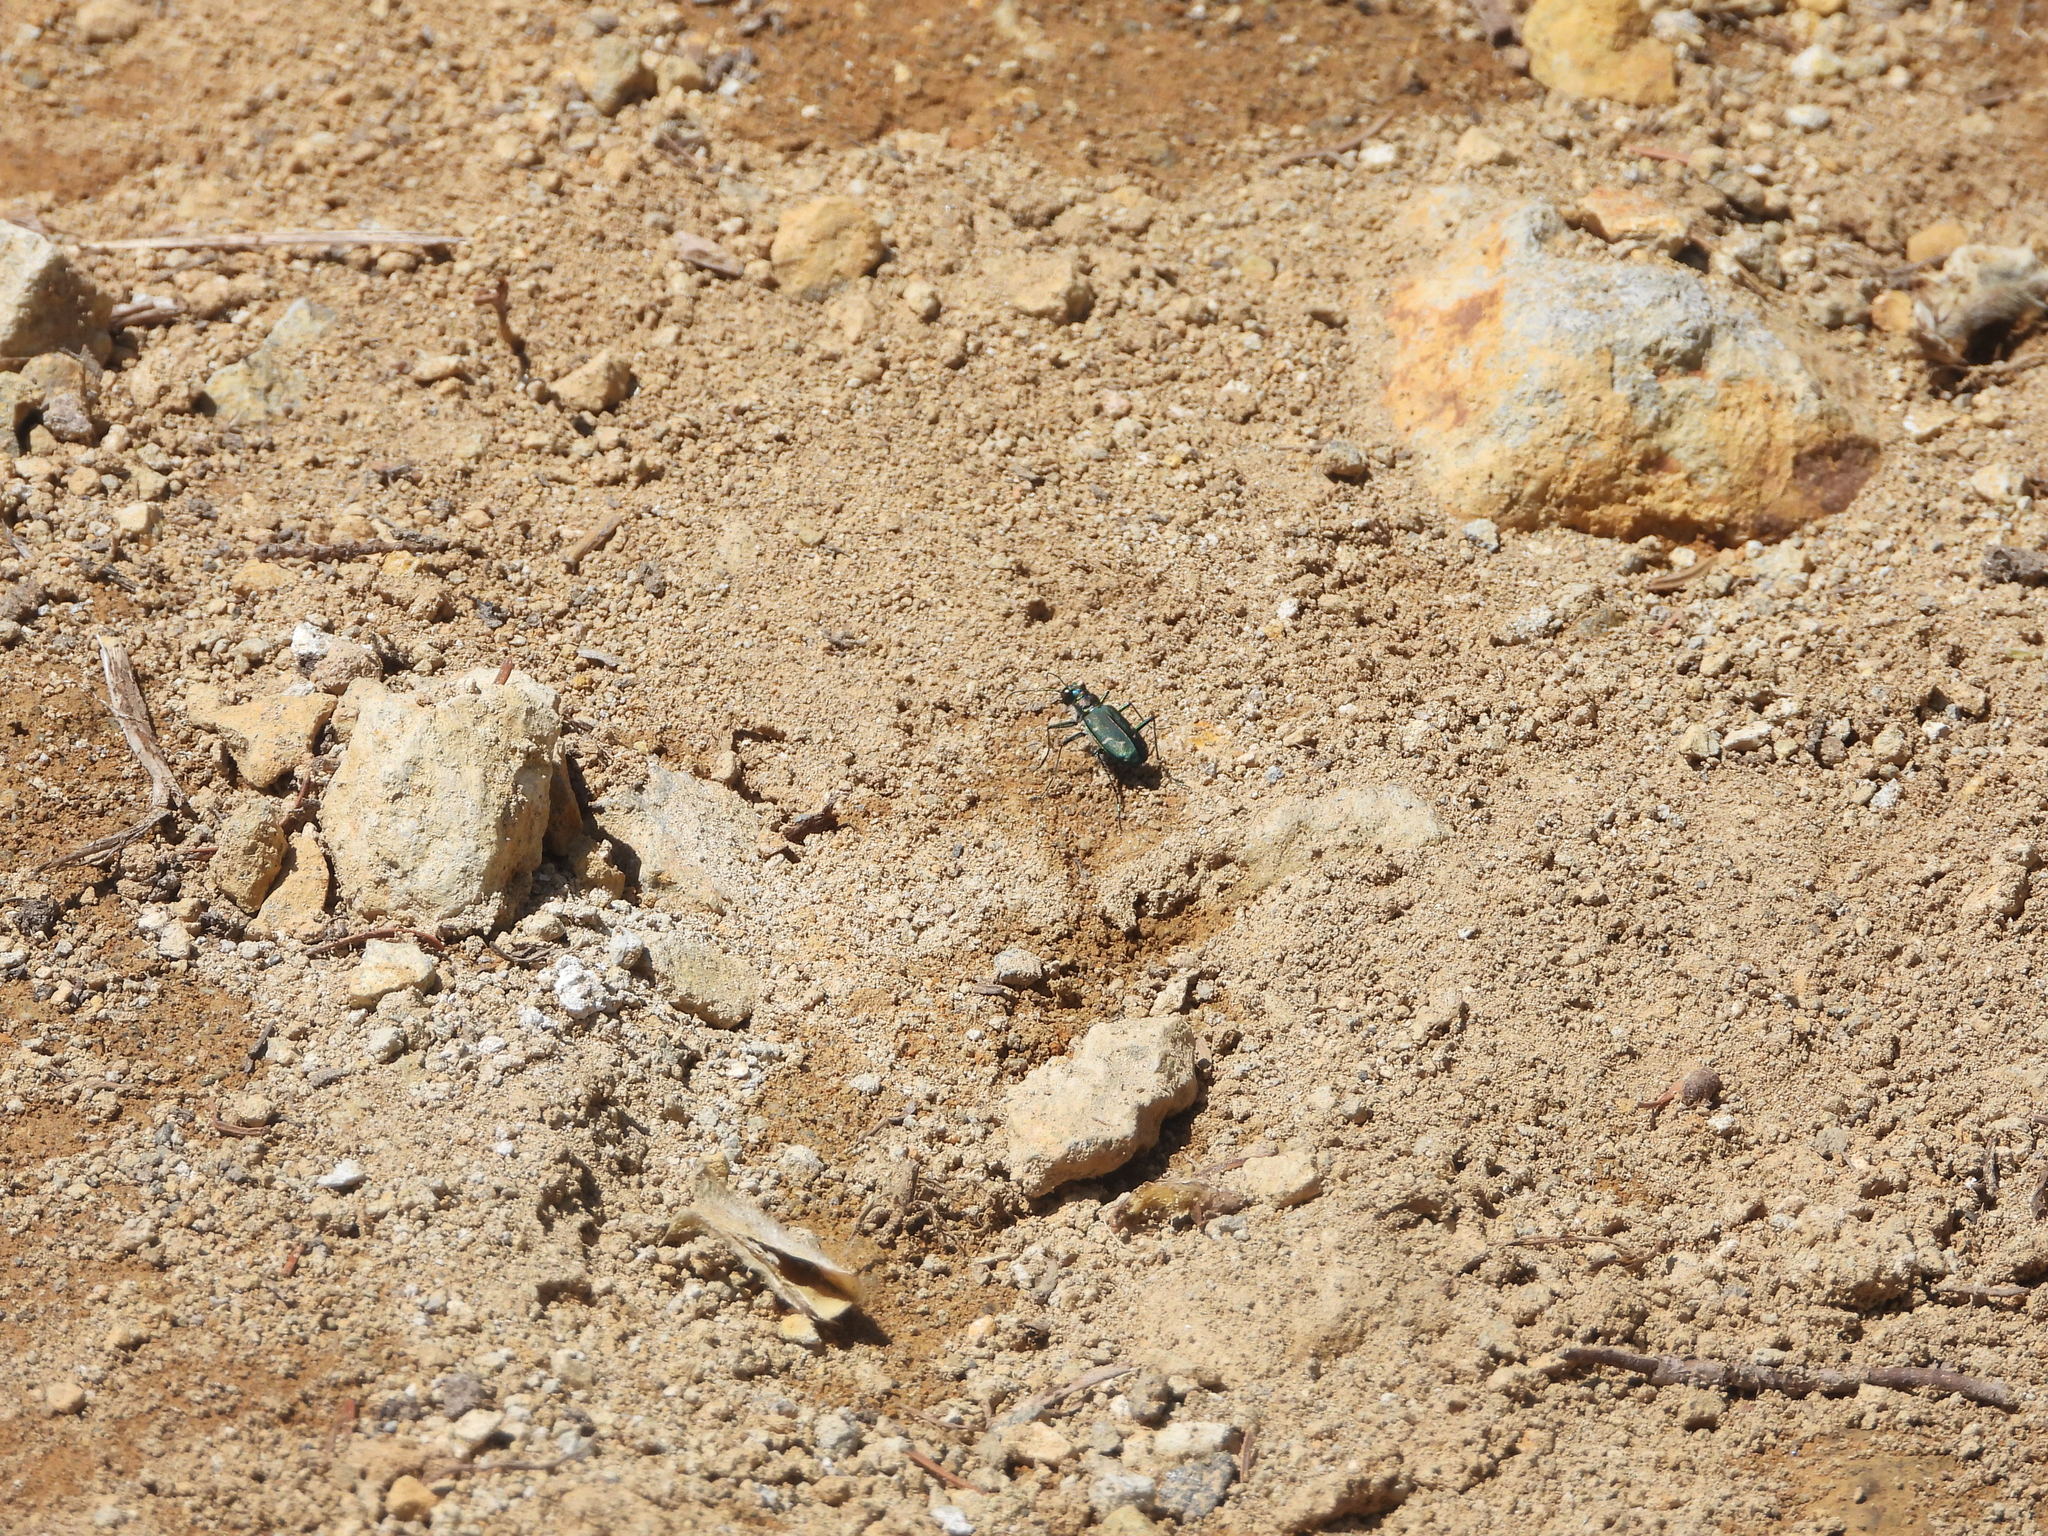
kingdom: Animalia
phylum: Arthropoda
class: Insecta
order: Coleoptera
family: Carabidae
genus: Cicindela
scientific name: Cicindela depressula
